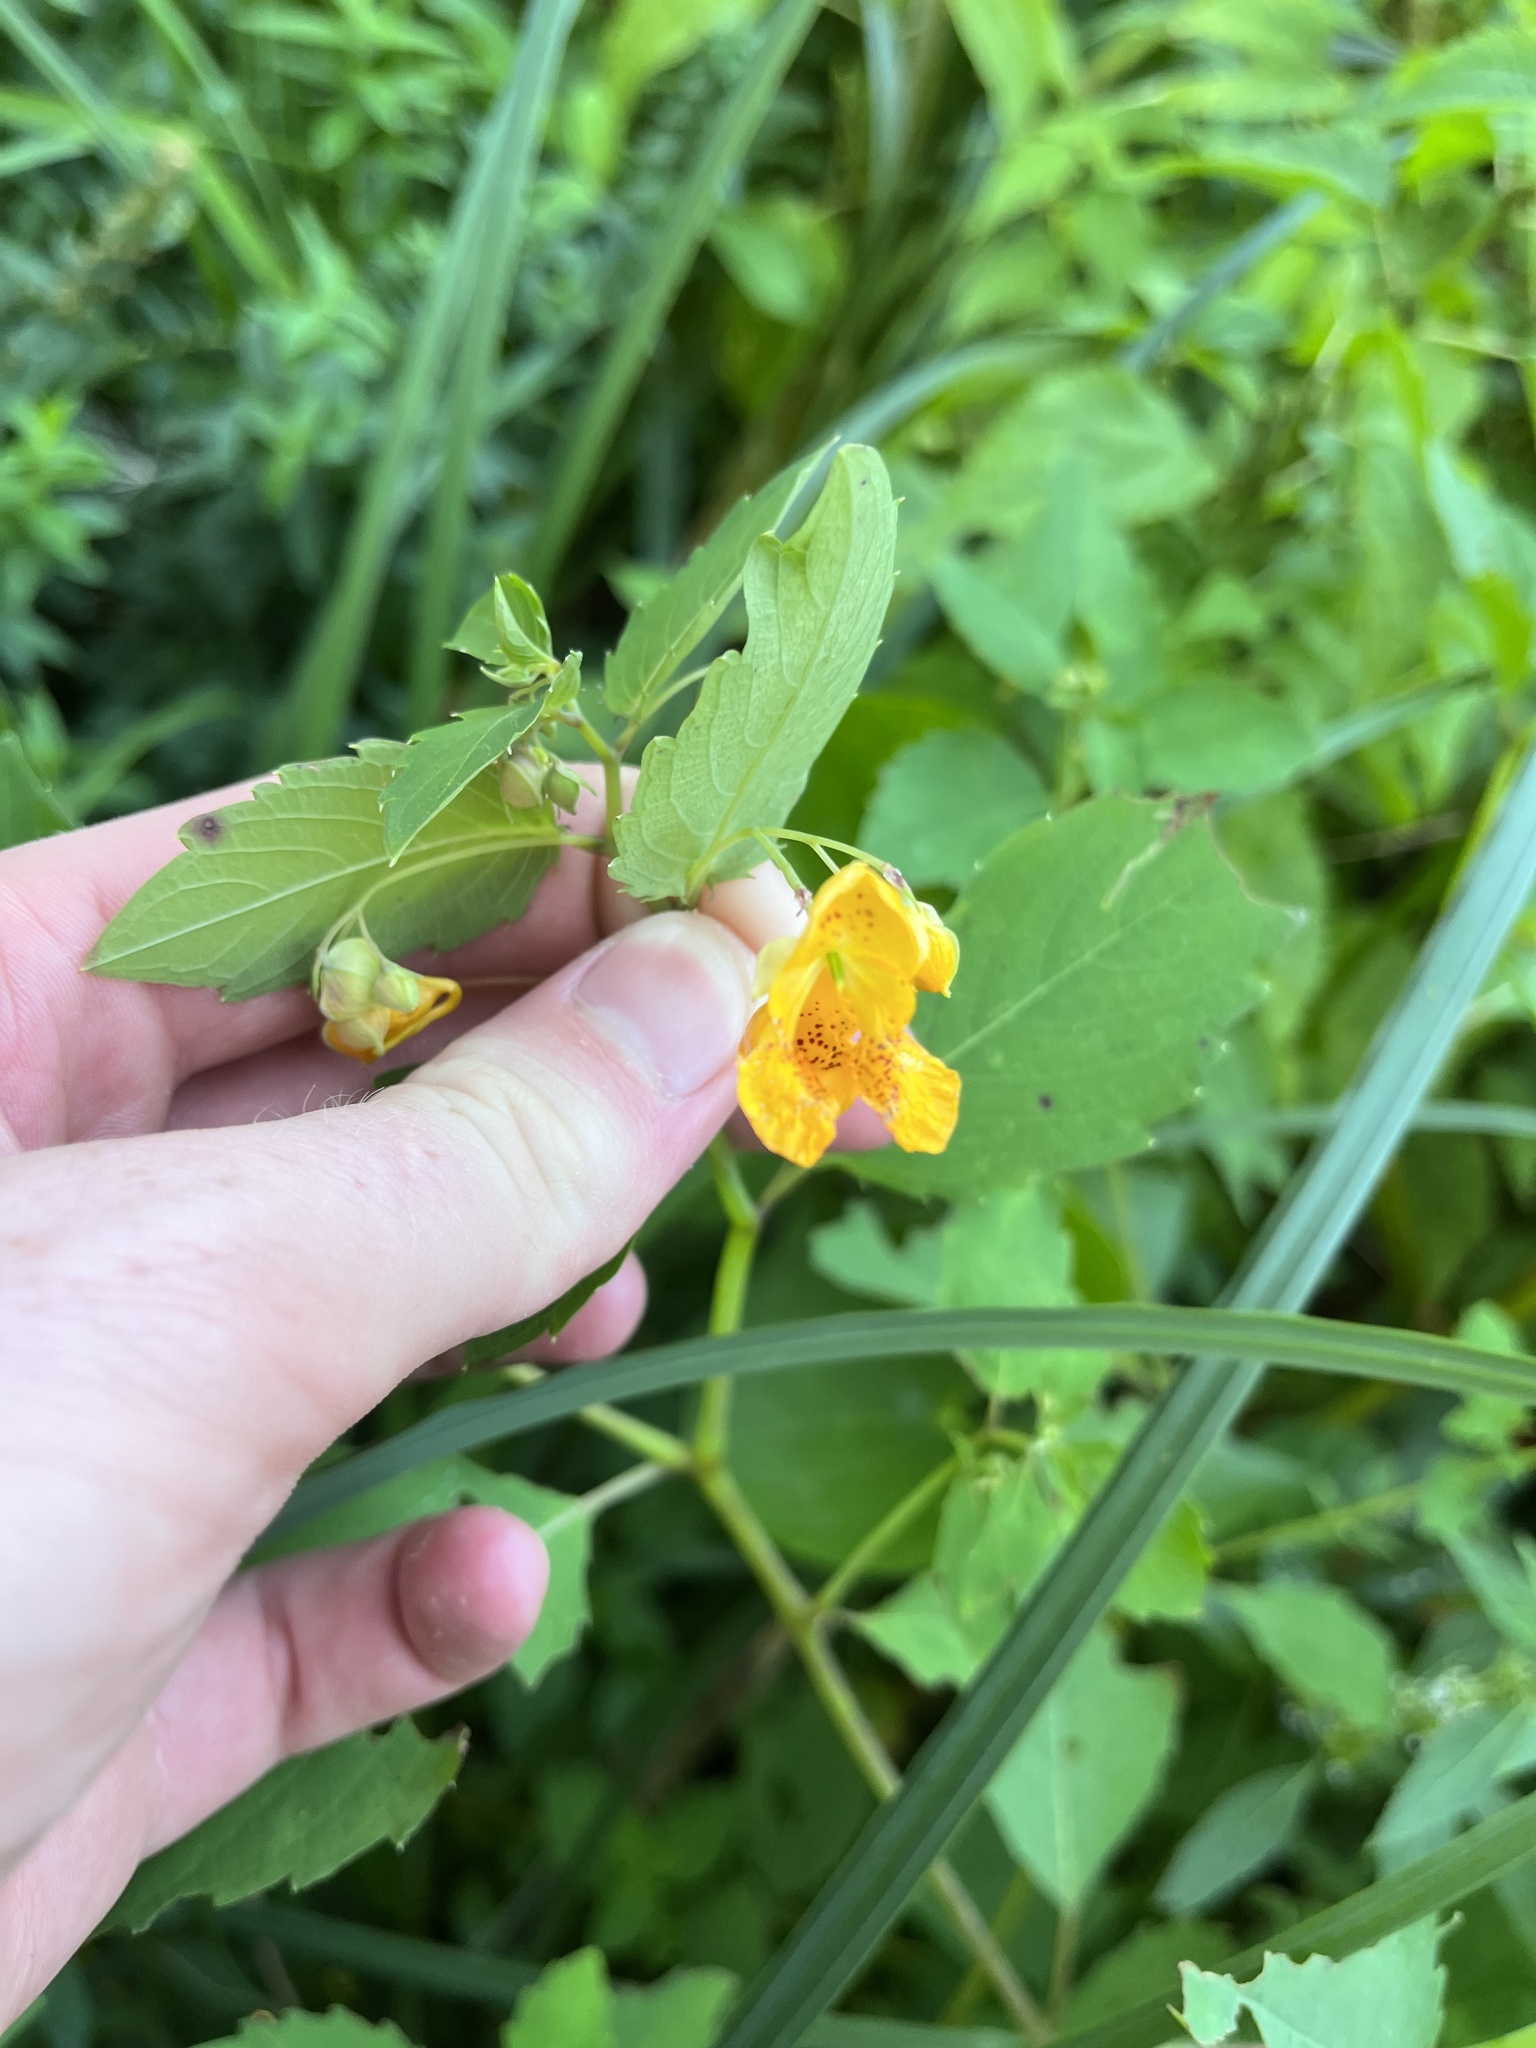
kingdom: Plantae
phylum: Tracheophyta
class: Magnoliopsida
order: Ericales
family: Balsaminaceae
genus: Impatiens
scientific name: Impatiens capensis
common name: Orange balsam
